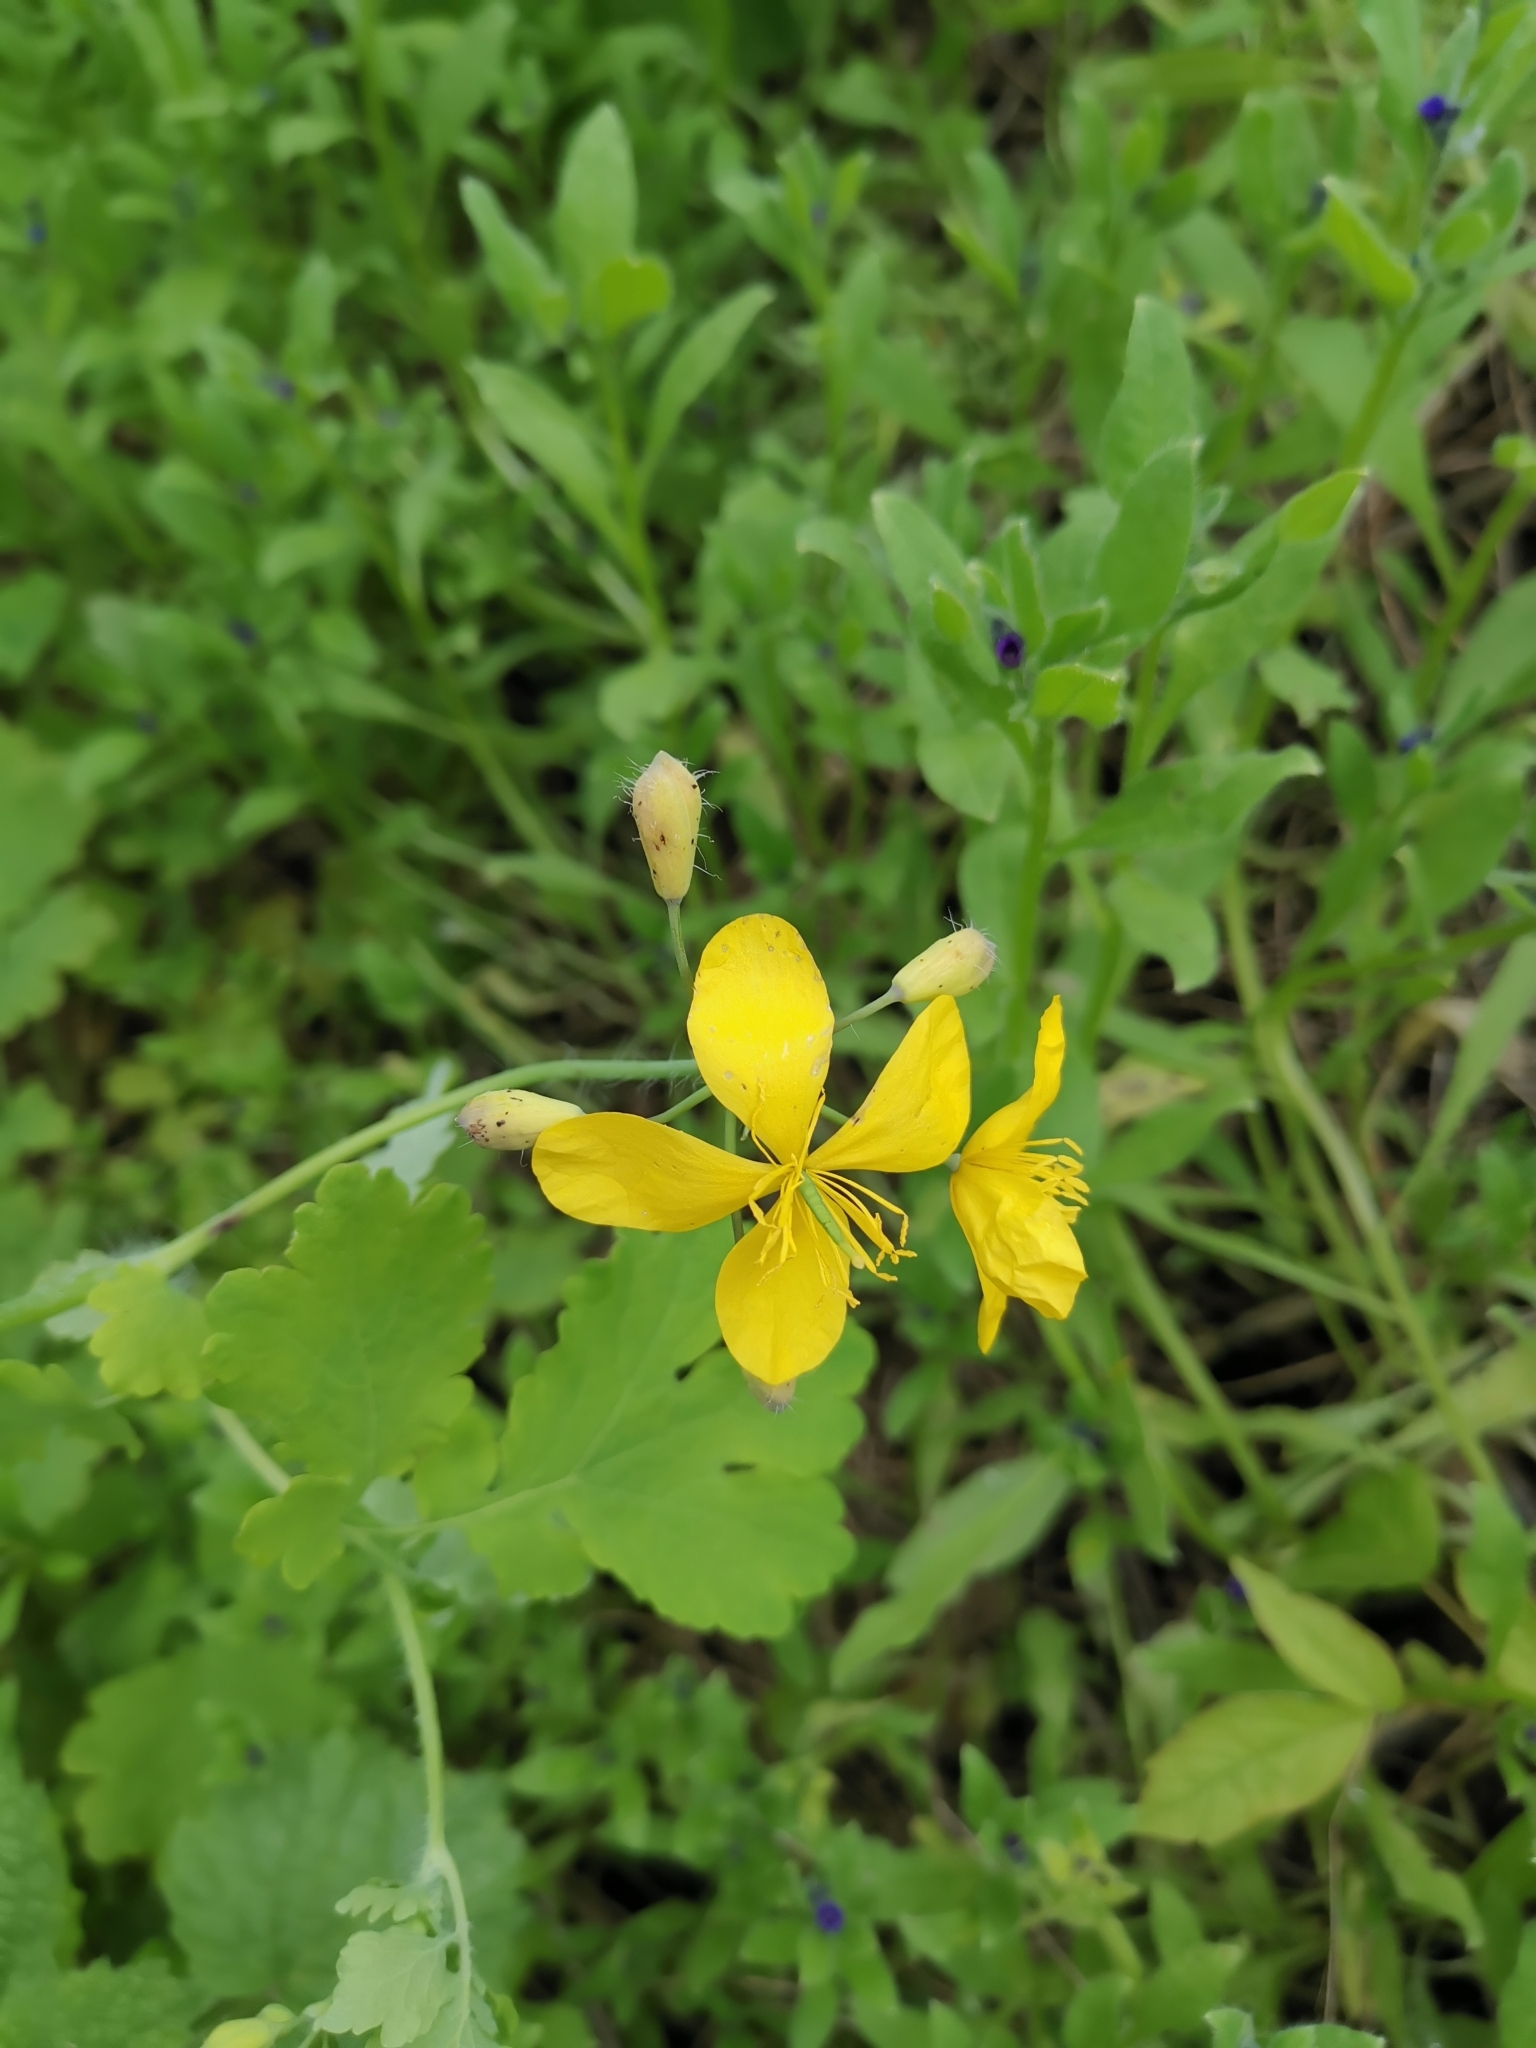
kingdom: Plantae
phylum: Tracheophyta
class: Magnoliopsida
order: Ranunculales
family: Papaveraceae
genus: Chelidonium
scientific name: Chelidonium majus
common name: Greater celandine
